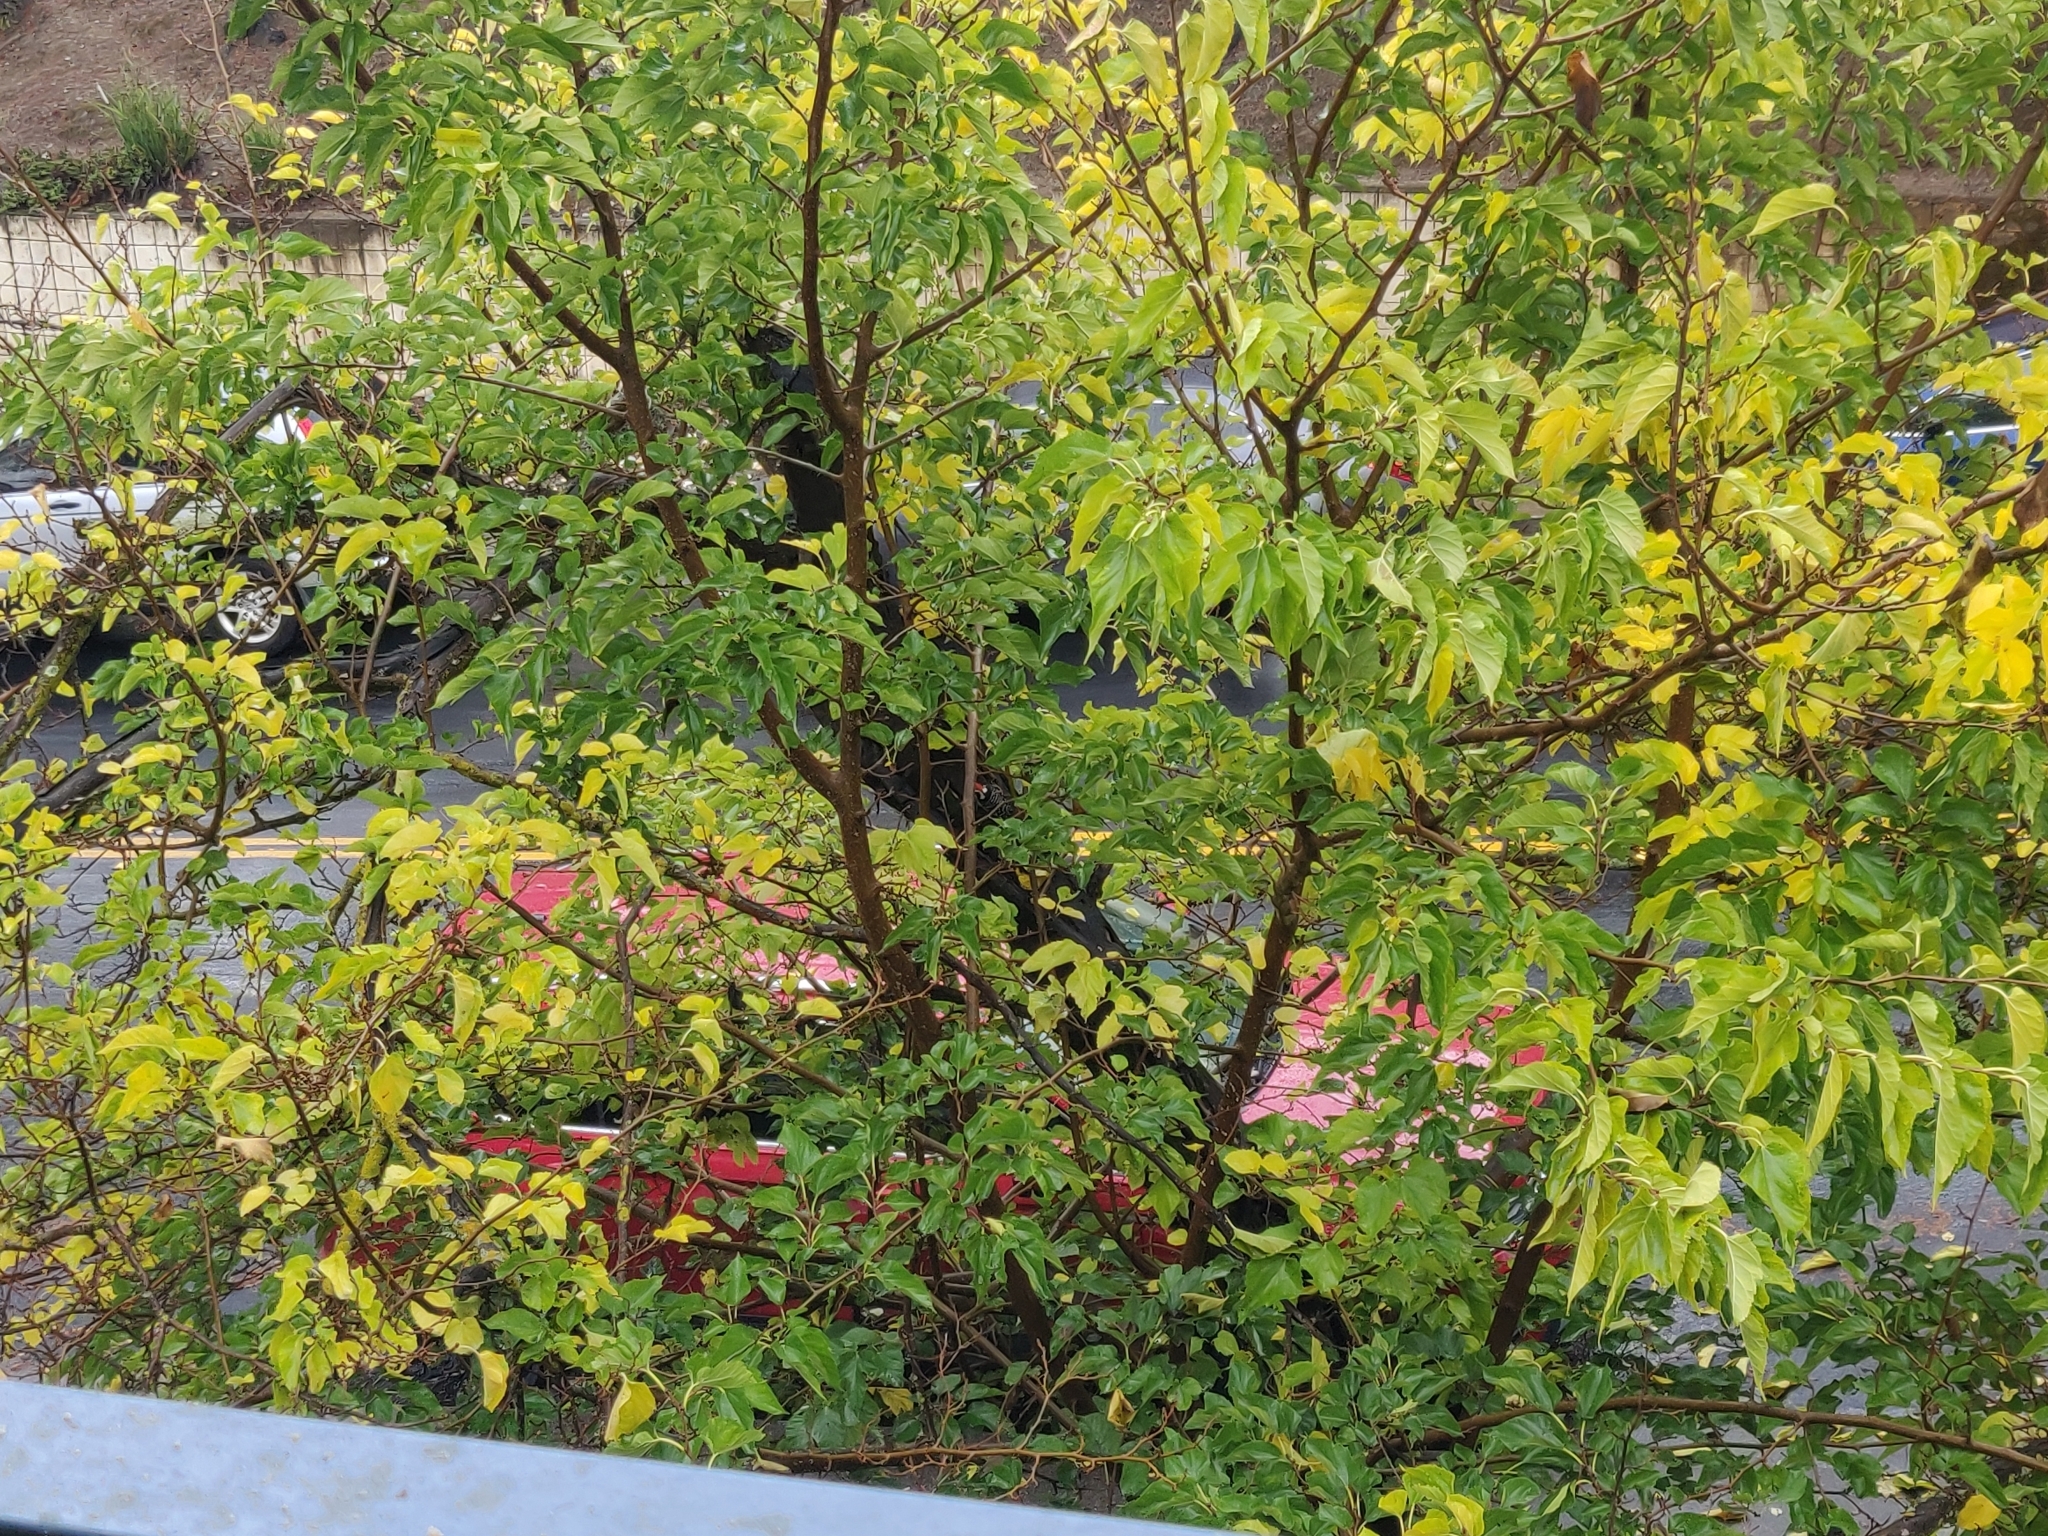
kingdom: Animalia
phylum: Chordata
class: Aves
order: Piciformes
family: Picidae
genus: Dryobates
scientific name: Dryobates nuttallii
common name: Nuttall's woodpecker
